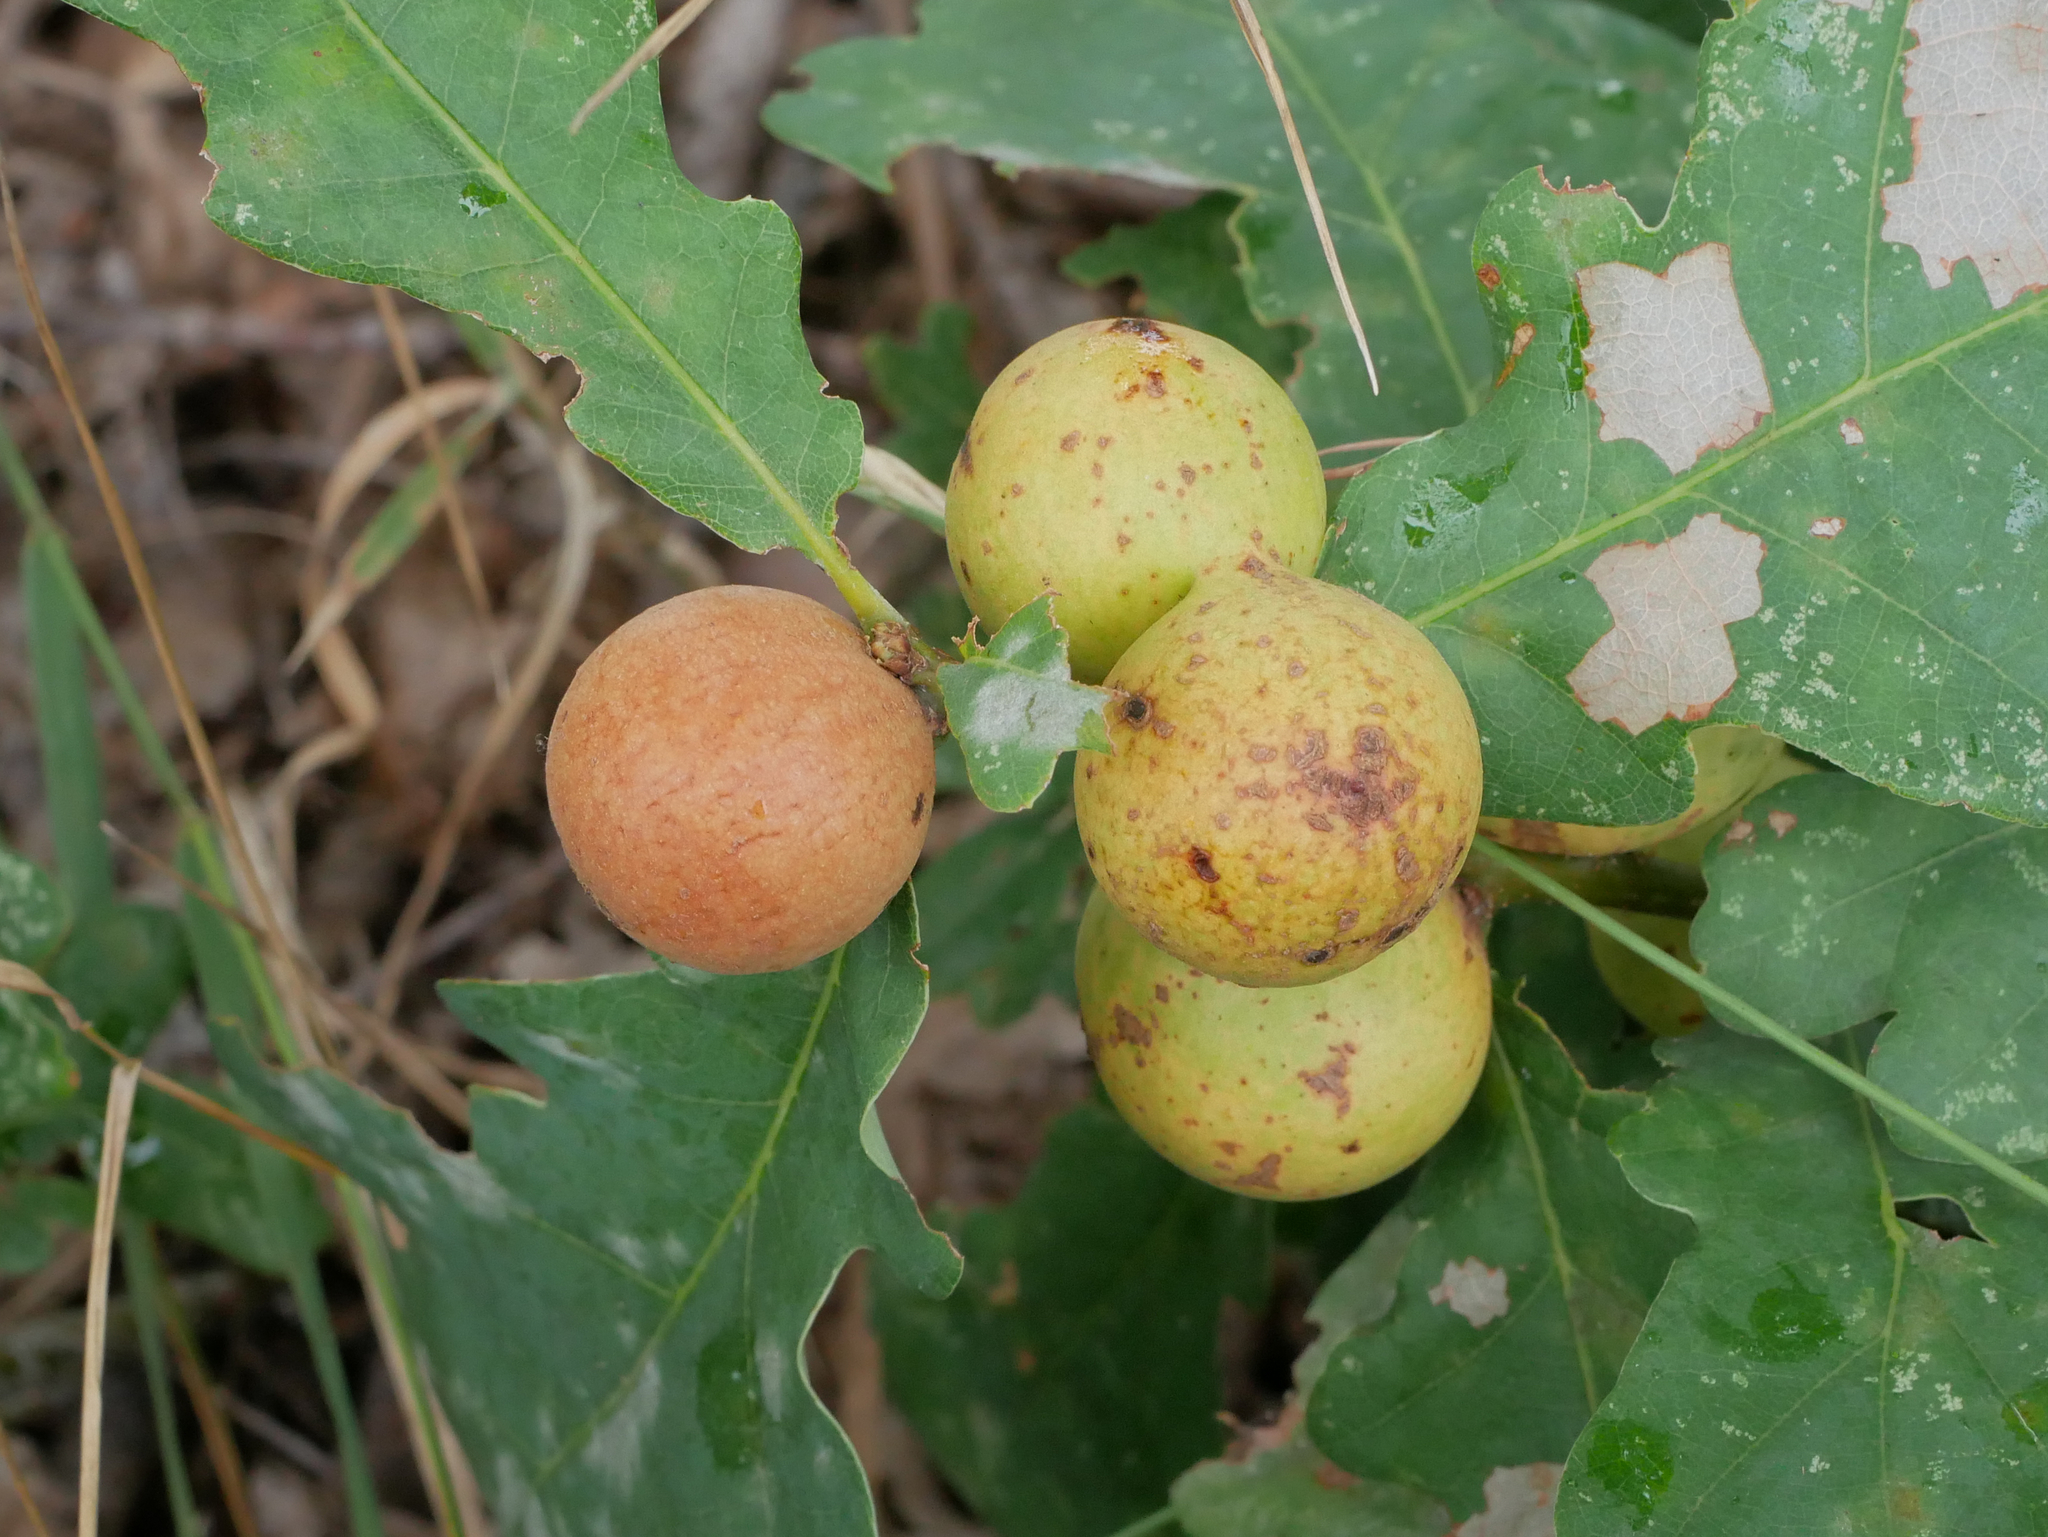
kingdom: Animalia
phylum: Arthropoda
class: Insecta
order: Hymenoptera
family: Cynipidae
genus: Andricus
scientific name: Andricus kollari
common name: Marble gall
